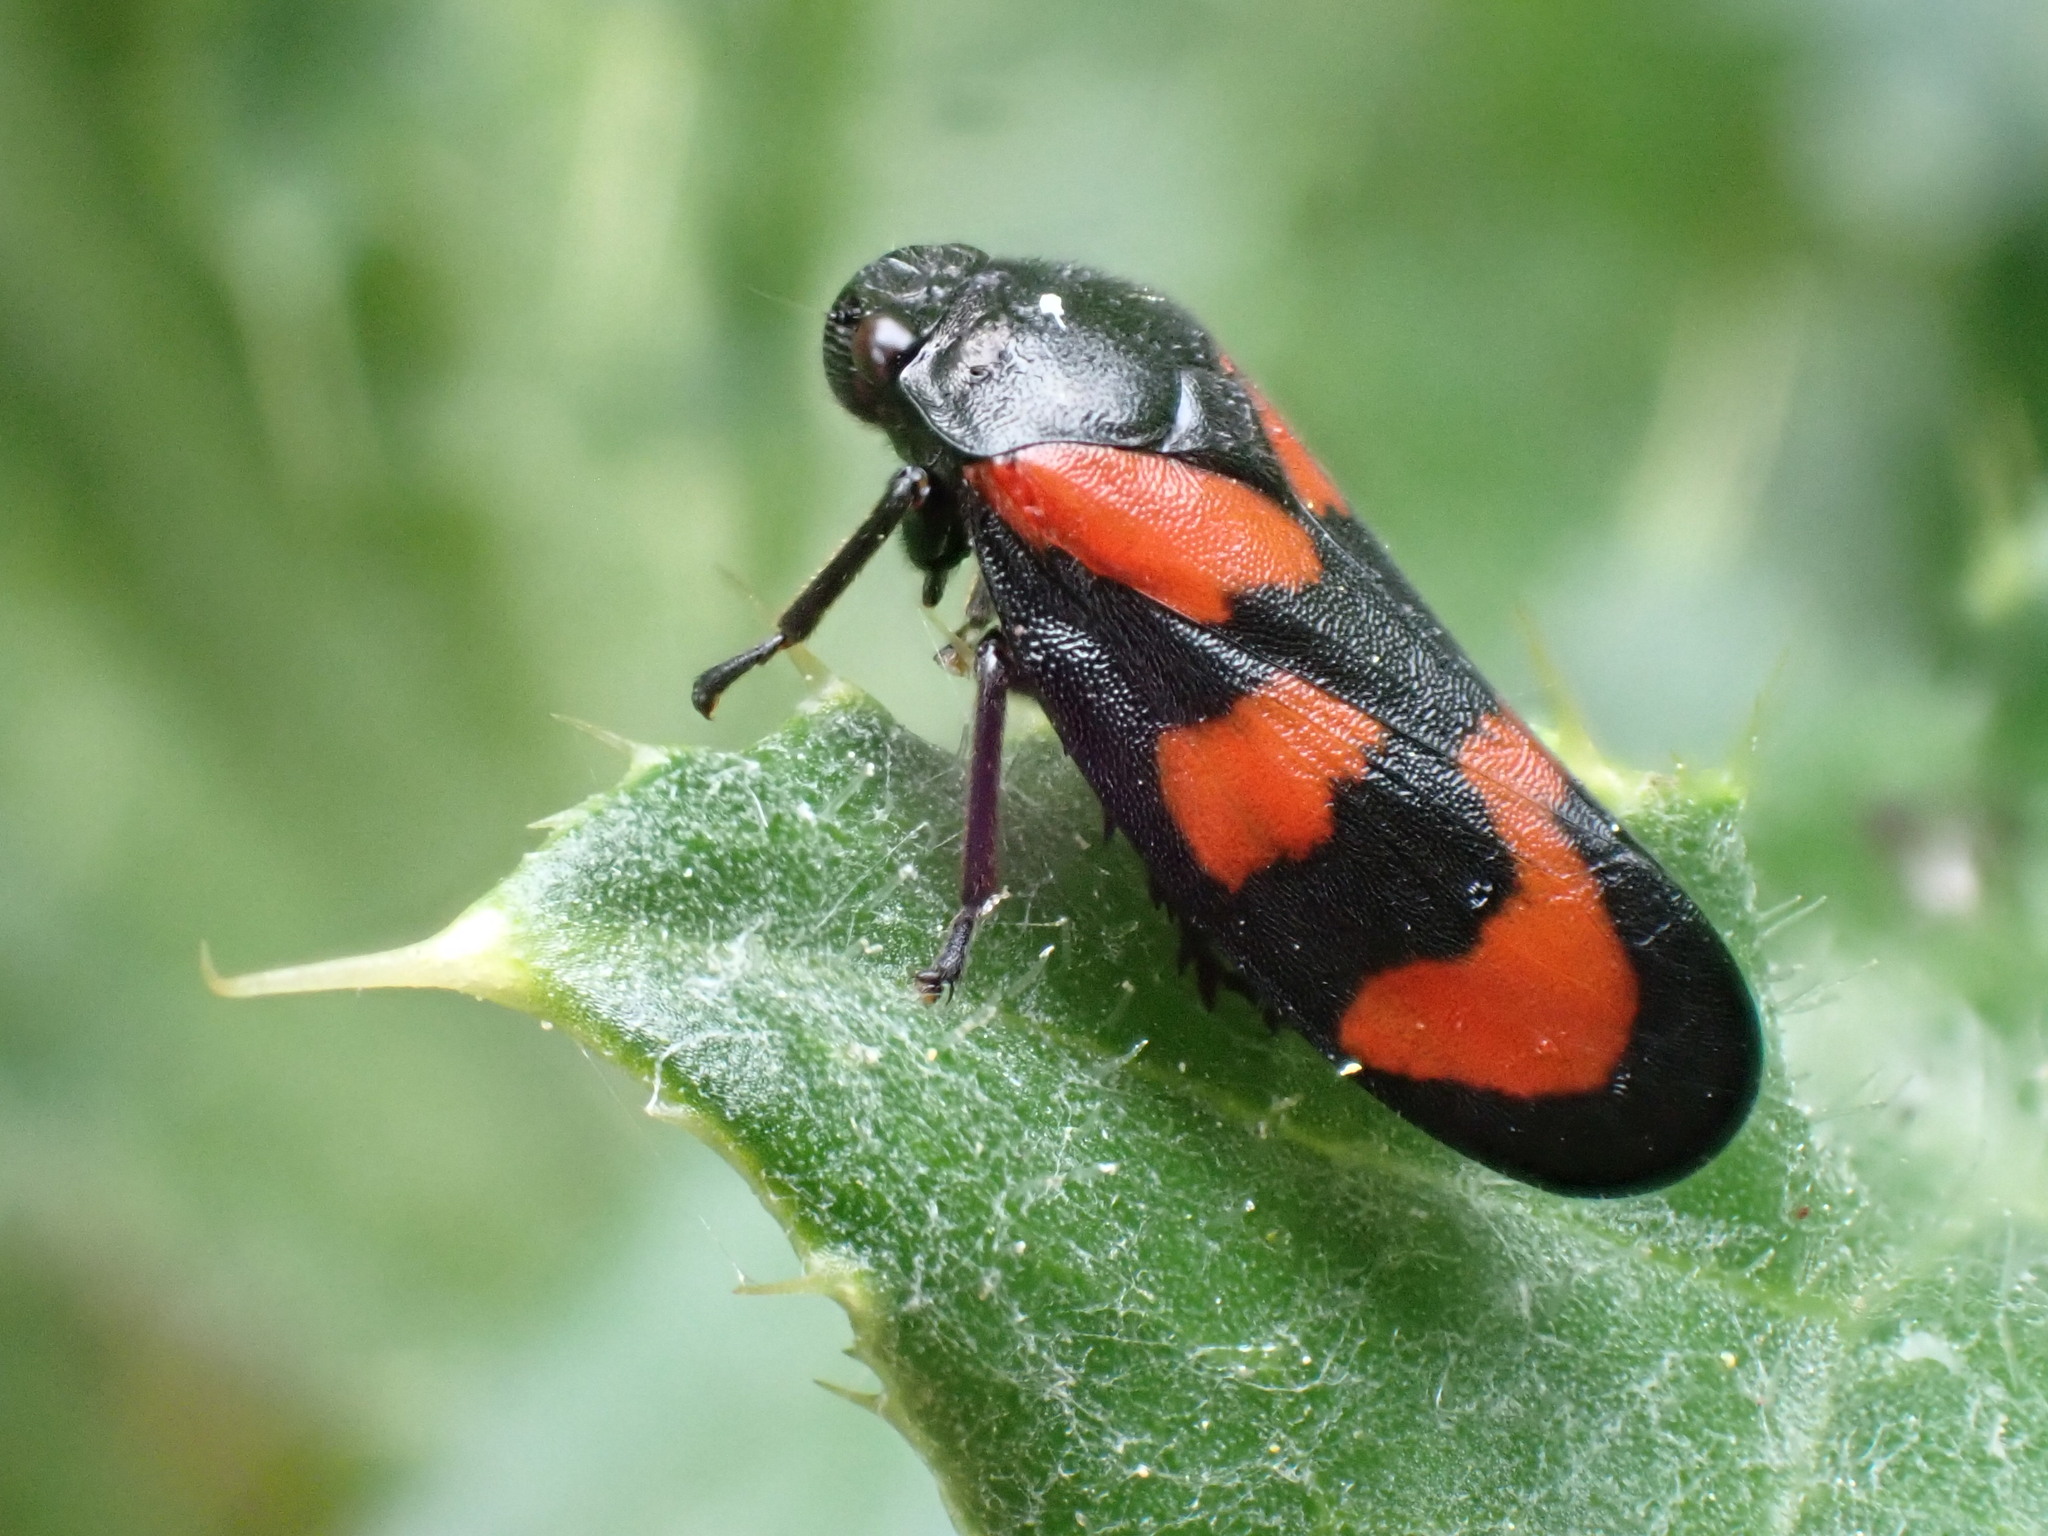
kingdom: Animalia
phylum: Arthropoda
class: Insecta
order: Hemiptera
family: Cercopidae
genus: Cercopis
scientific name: Cercopis vulnerata
